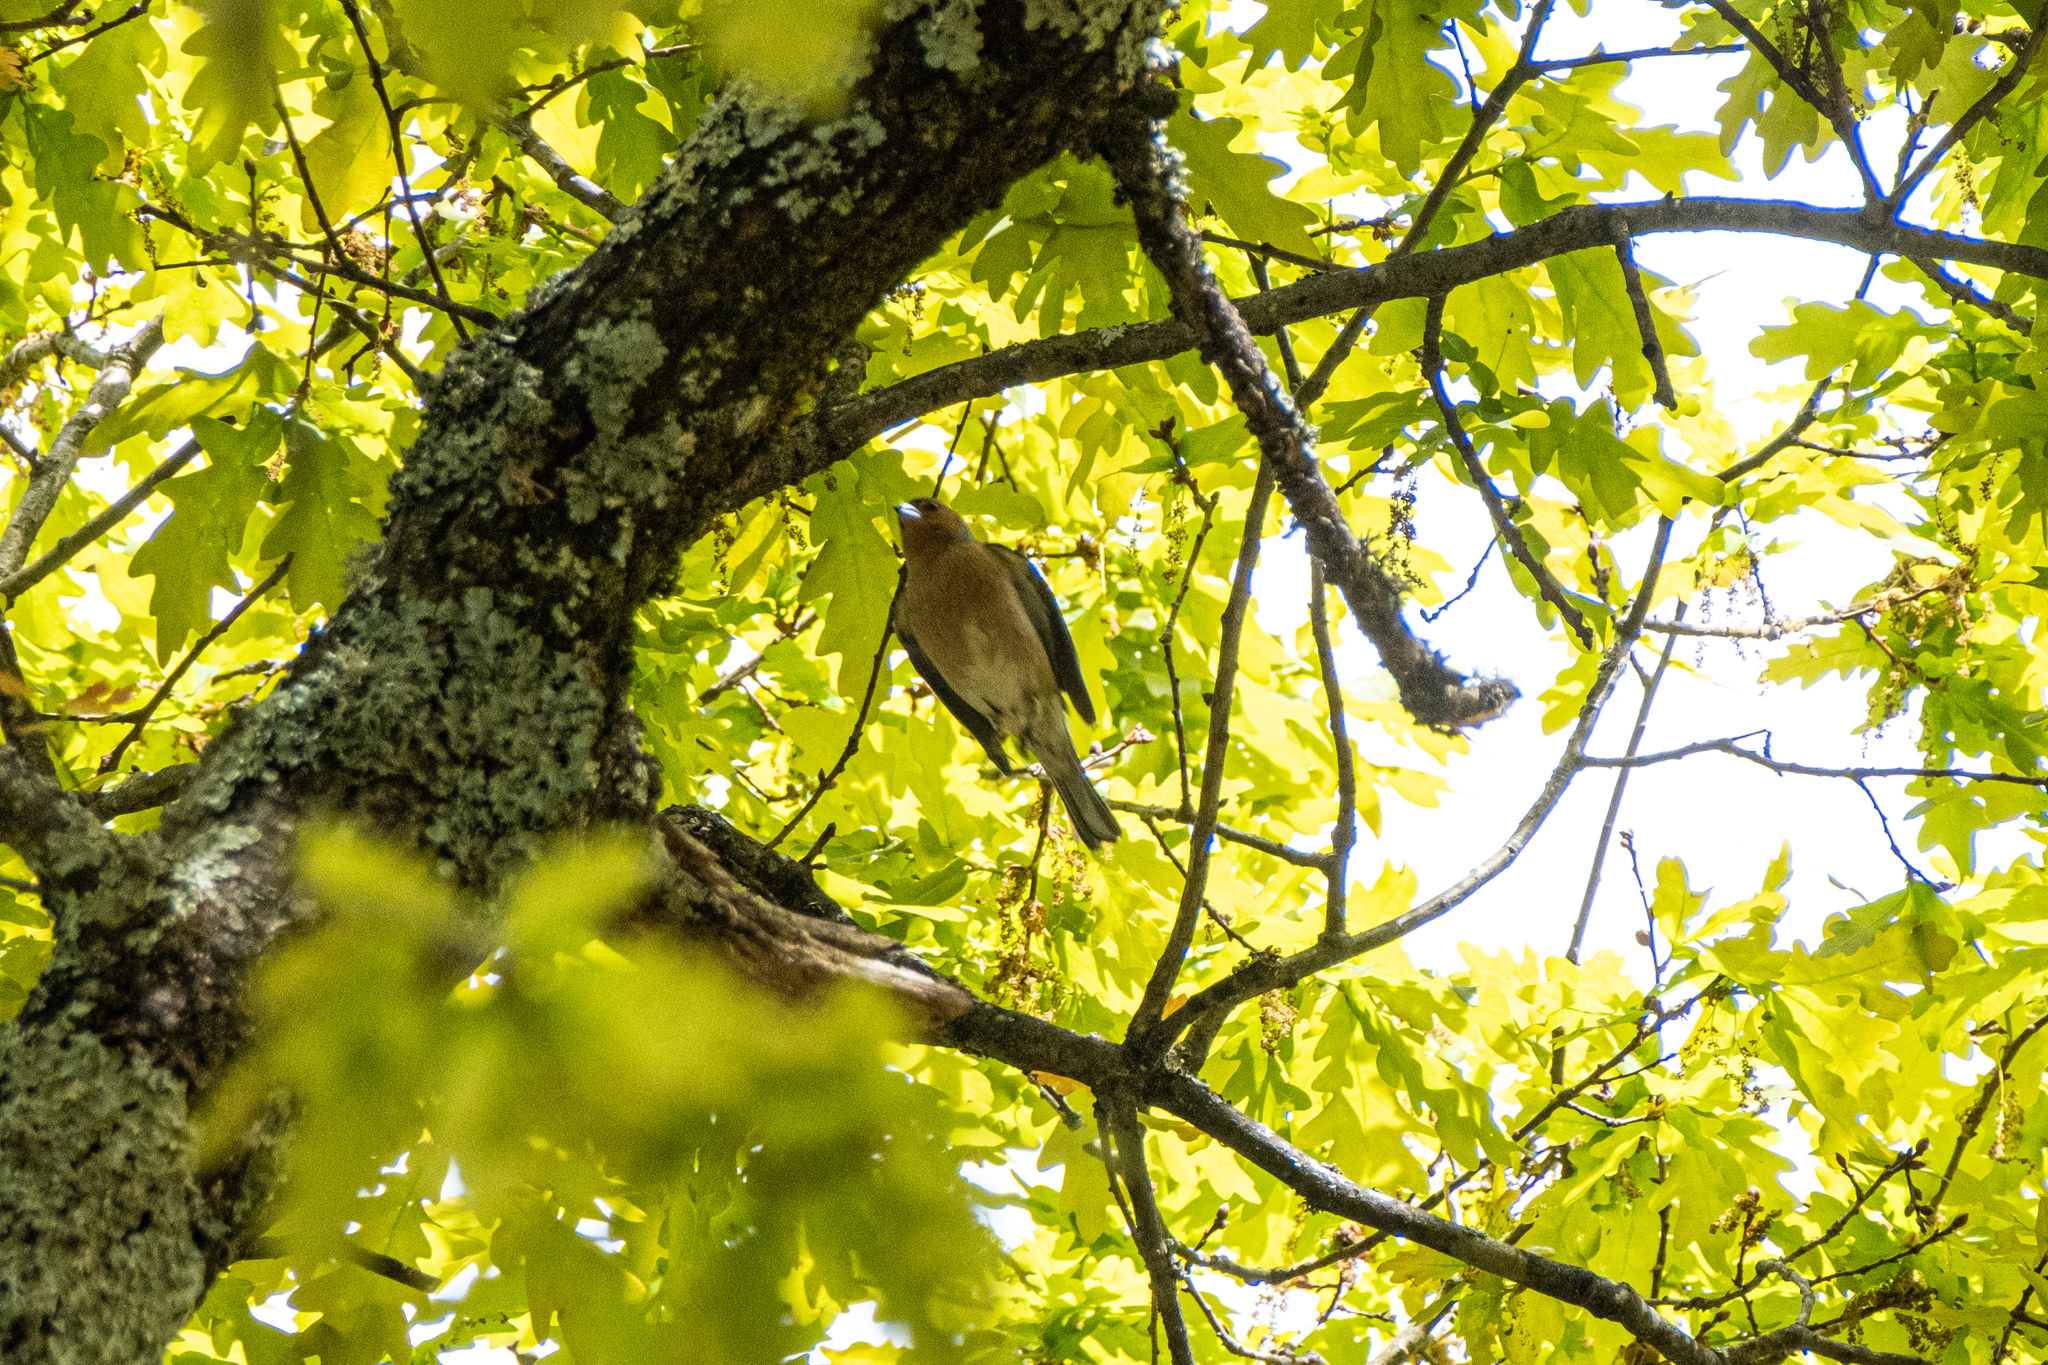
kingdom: Animalia
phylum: Chordata
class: Aves
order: Passeriformes
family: Fringillidae
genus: Fringilla
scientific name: Fringilla coelebs
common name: Common chaffinch
